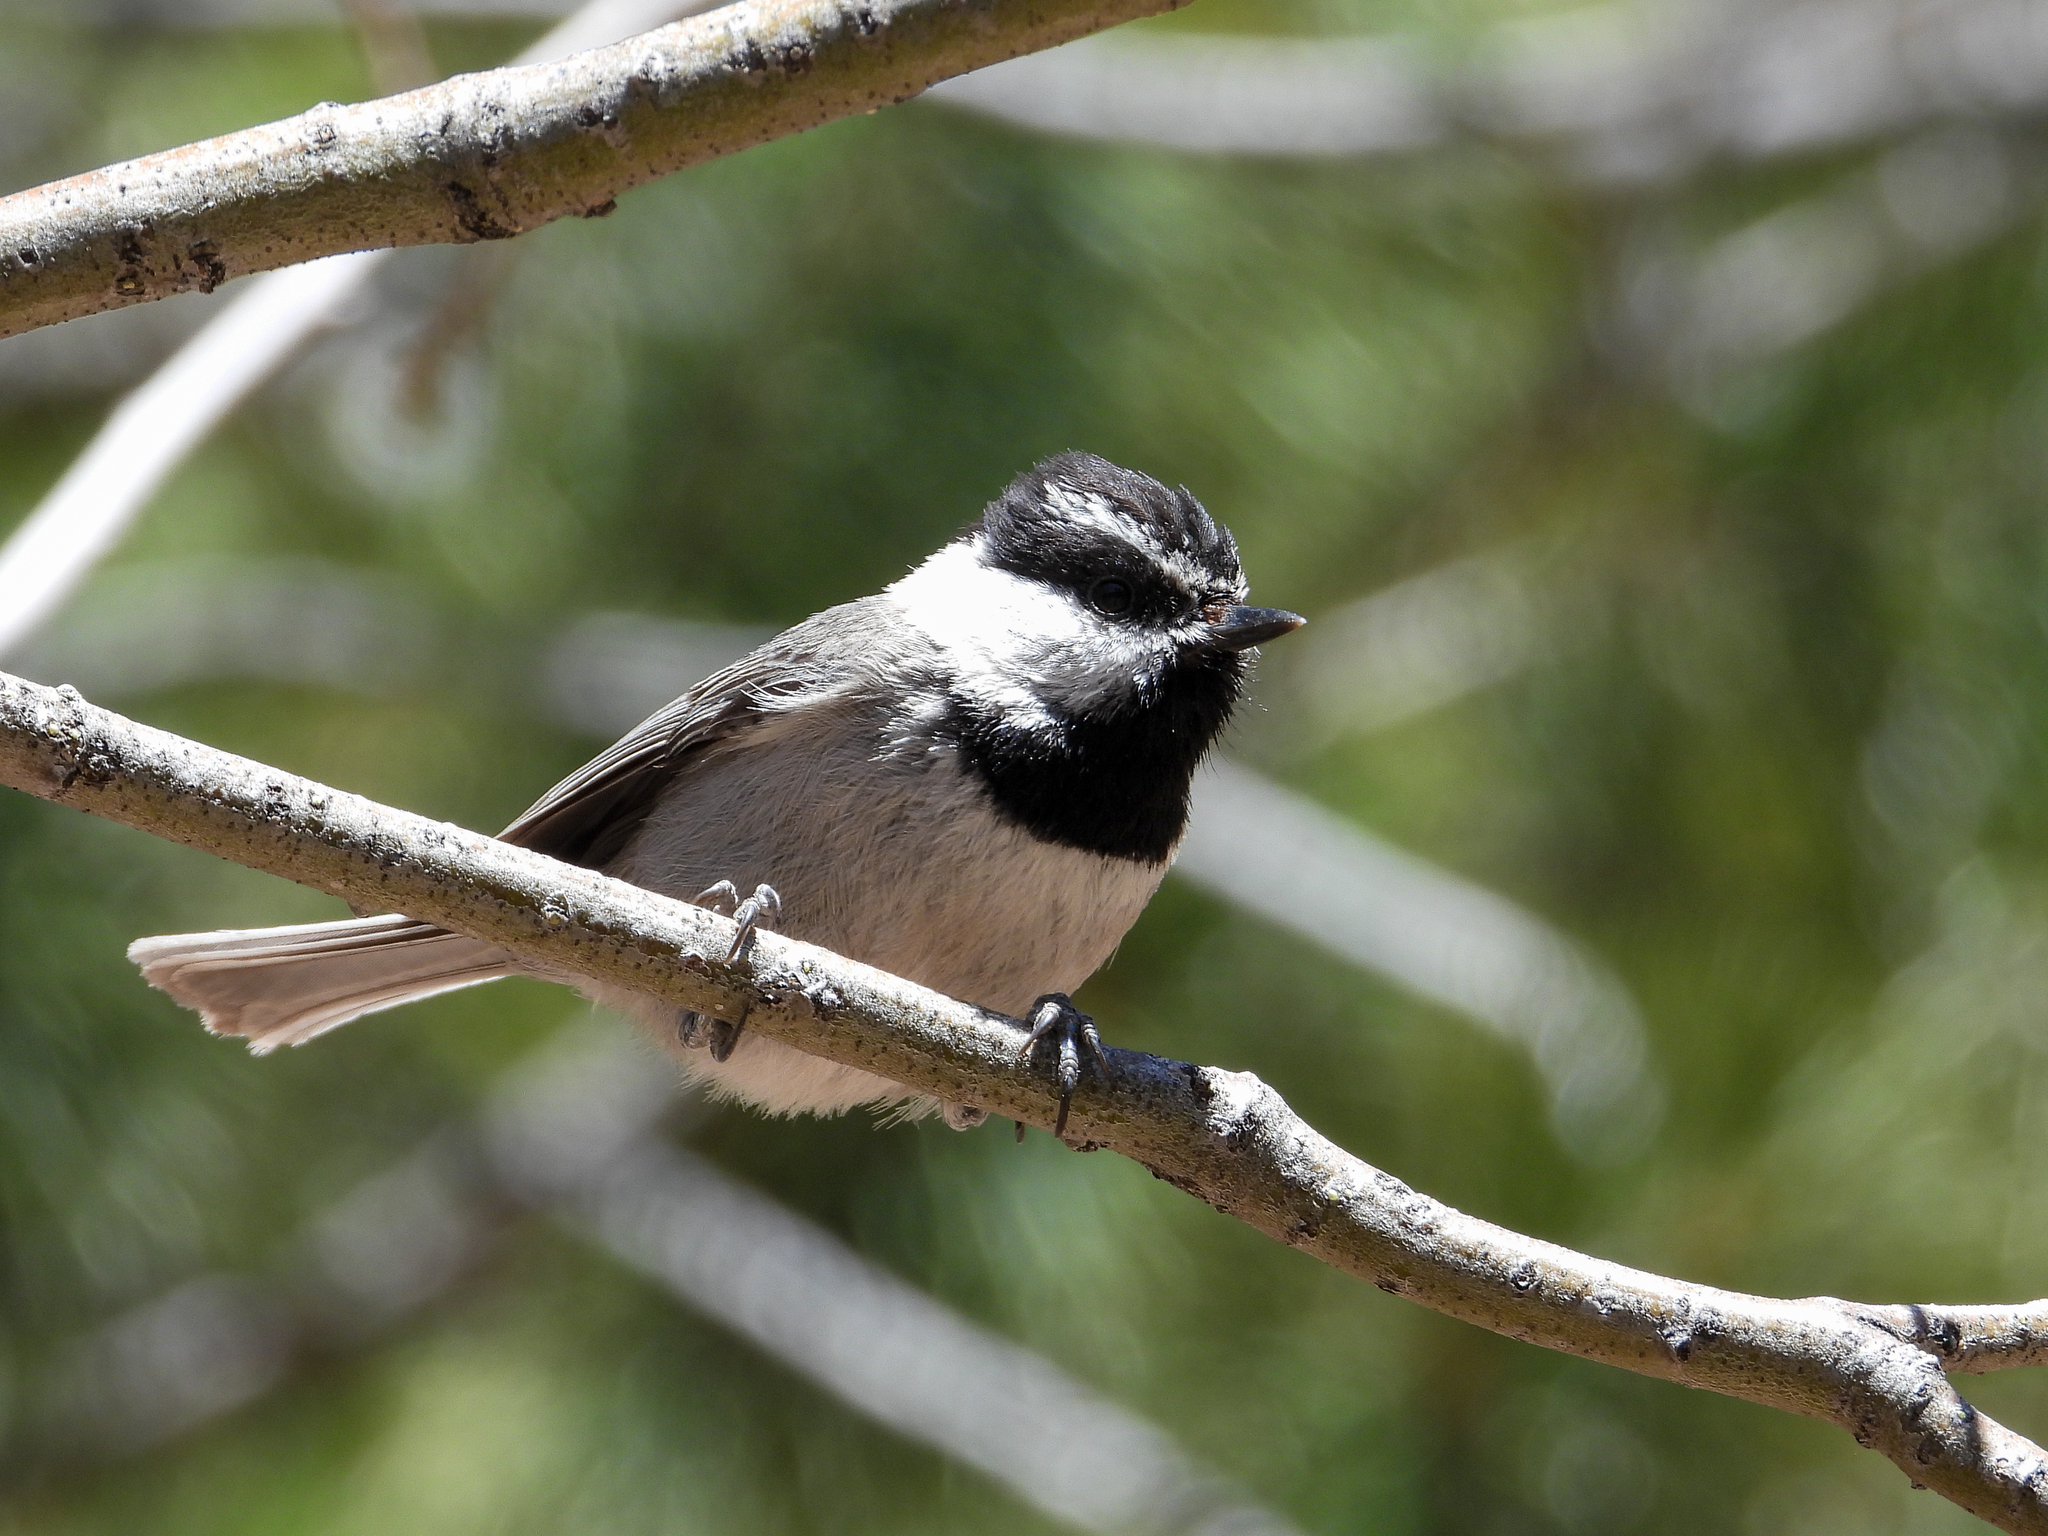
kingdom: Animalia
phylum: Chordata
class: Aves
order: Passeriformes
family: Paridae
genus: Poecile
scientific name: Poecile gambeli
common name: Mountain chickadee
